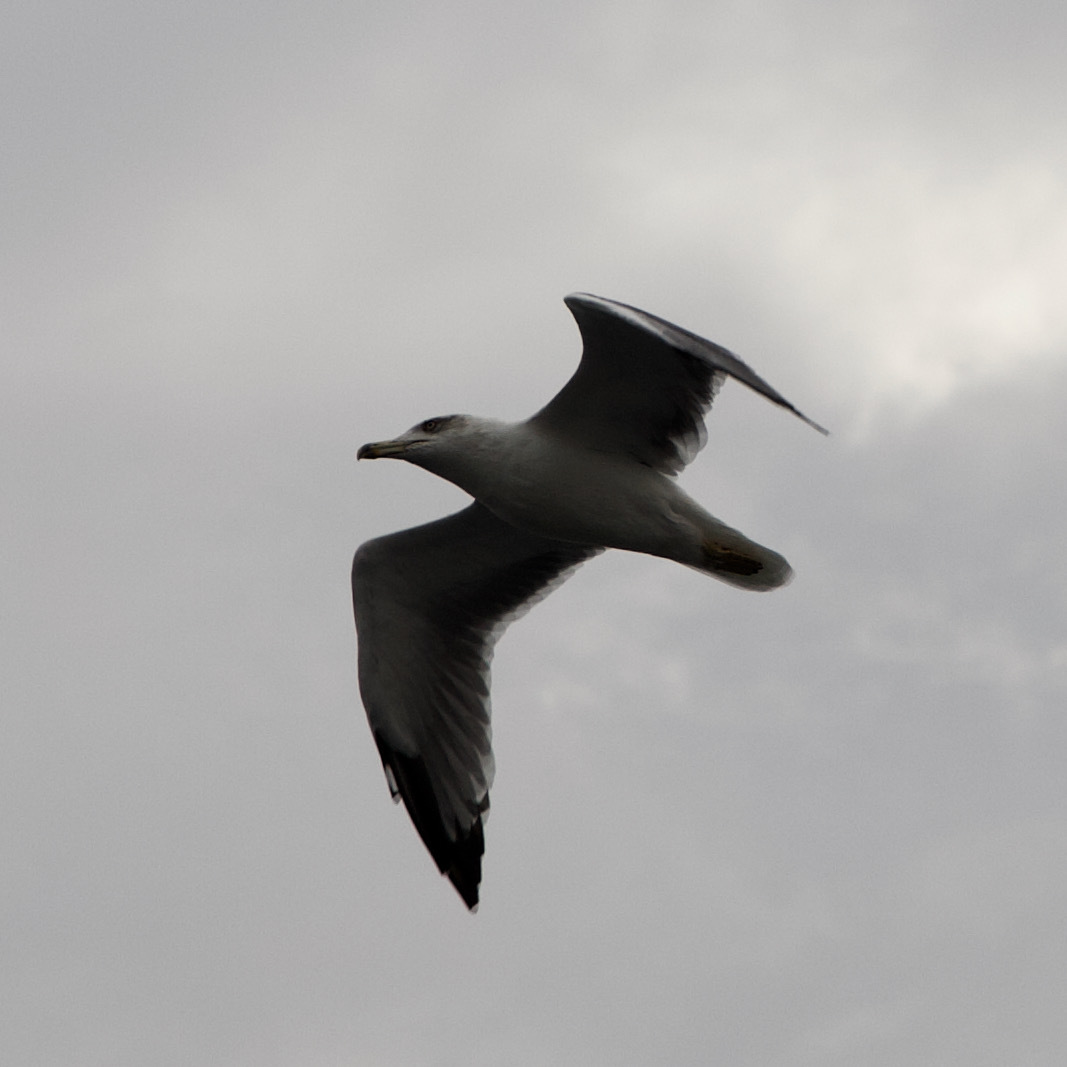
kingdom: Animalia
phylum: Chordata
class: Aves
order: Charadriiformes
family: Laridae
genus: Larus
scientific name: Larus michahellis
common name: Yellow-legged gull
